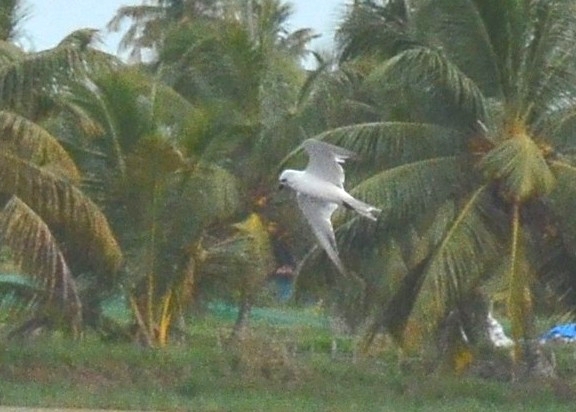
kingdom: Animalia
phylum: Chordata
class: Aves
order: Charadriiformes
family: Laridae
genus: Gelochelidon
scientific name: Gelochelidon nilotica
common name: Gull-billed tern
